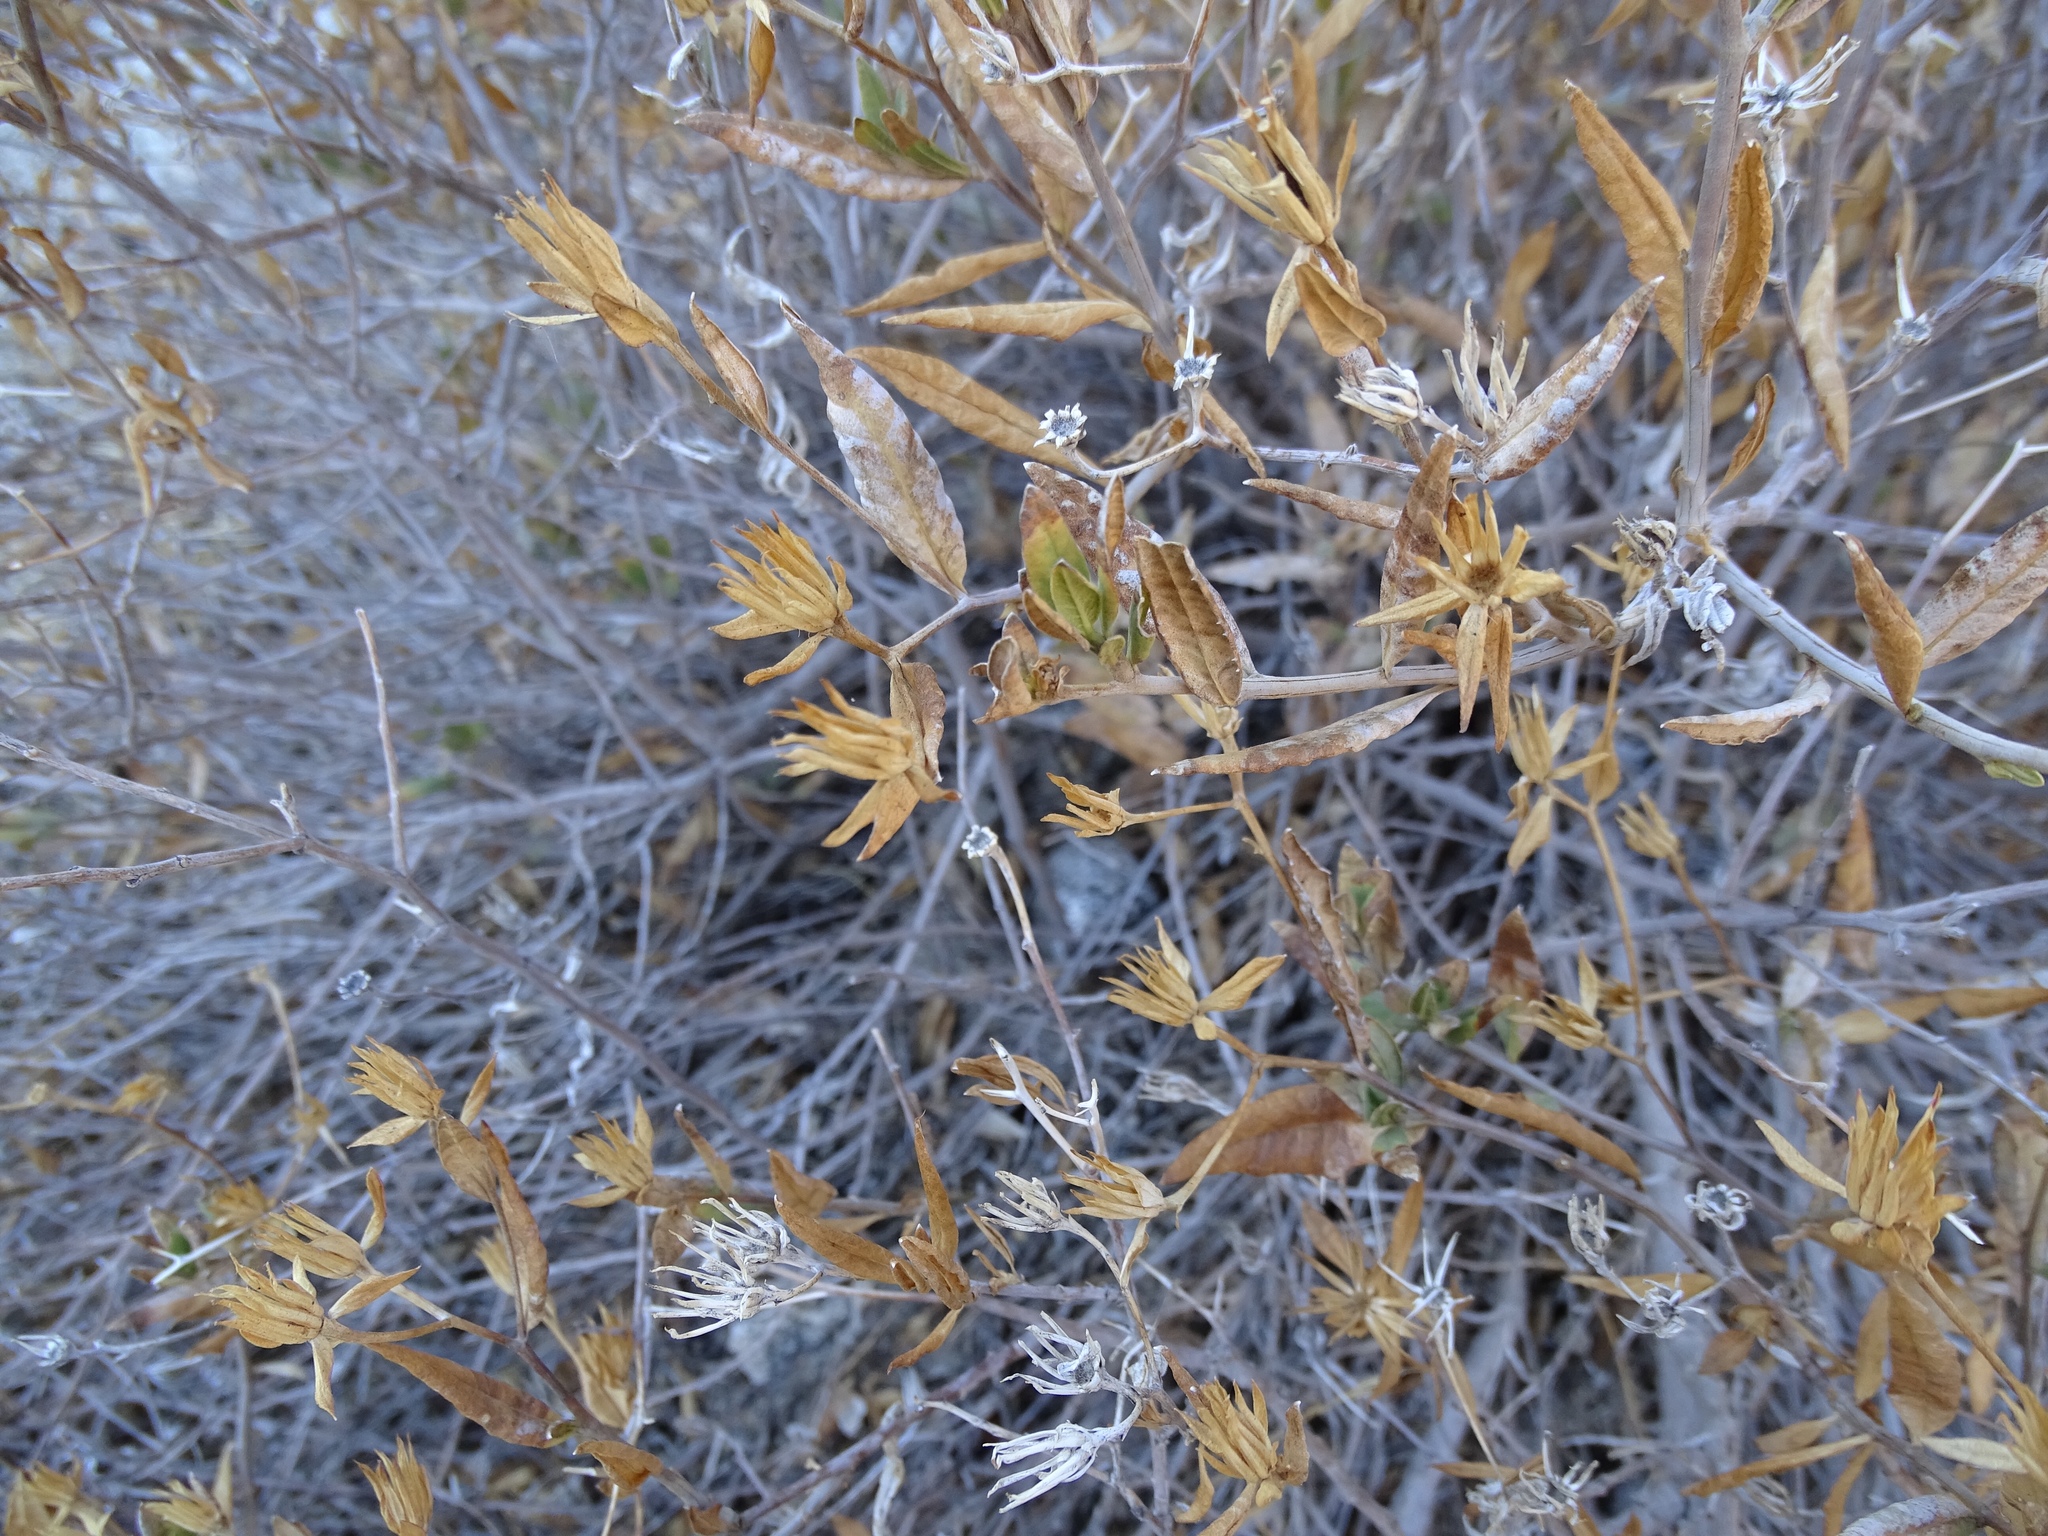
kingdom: Plantae
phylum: Tracheophyta
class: Magnoliopsida
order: Asterales
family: Asteraceae
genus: Trixis
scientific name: Trixis californica
